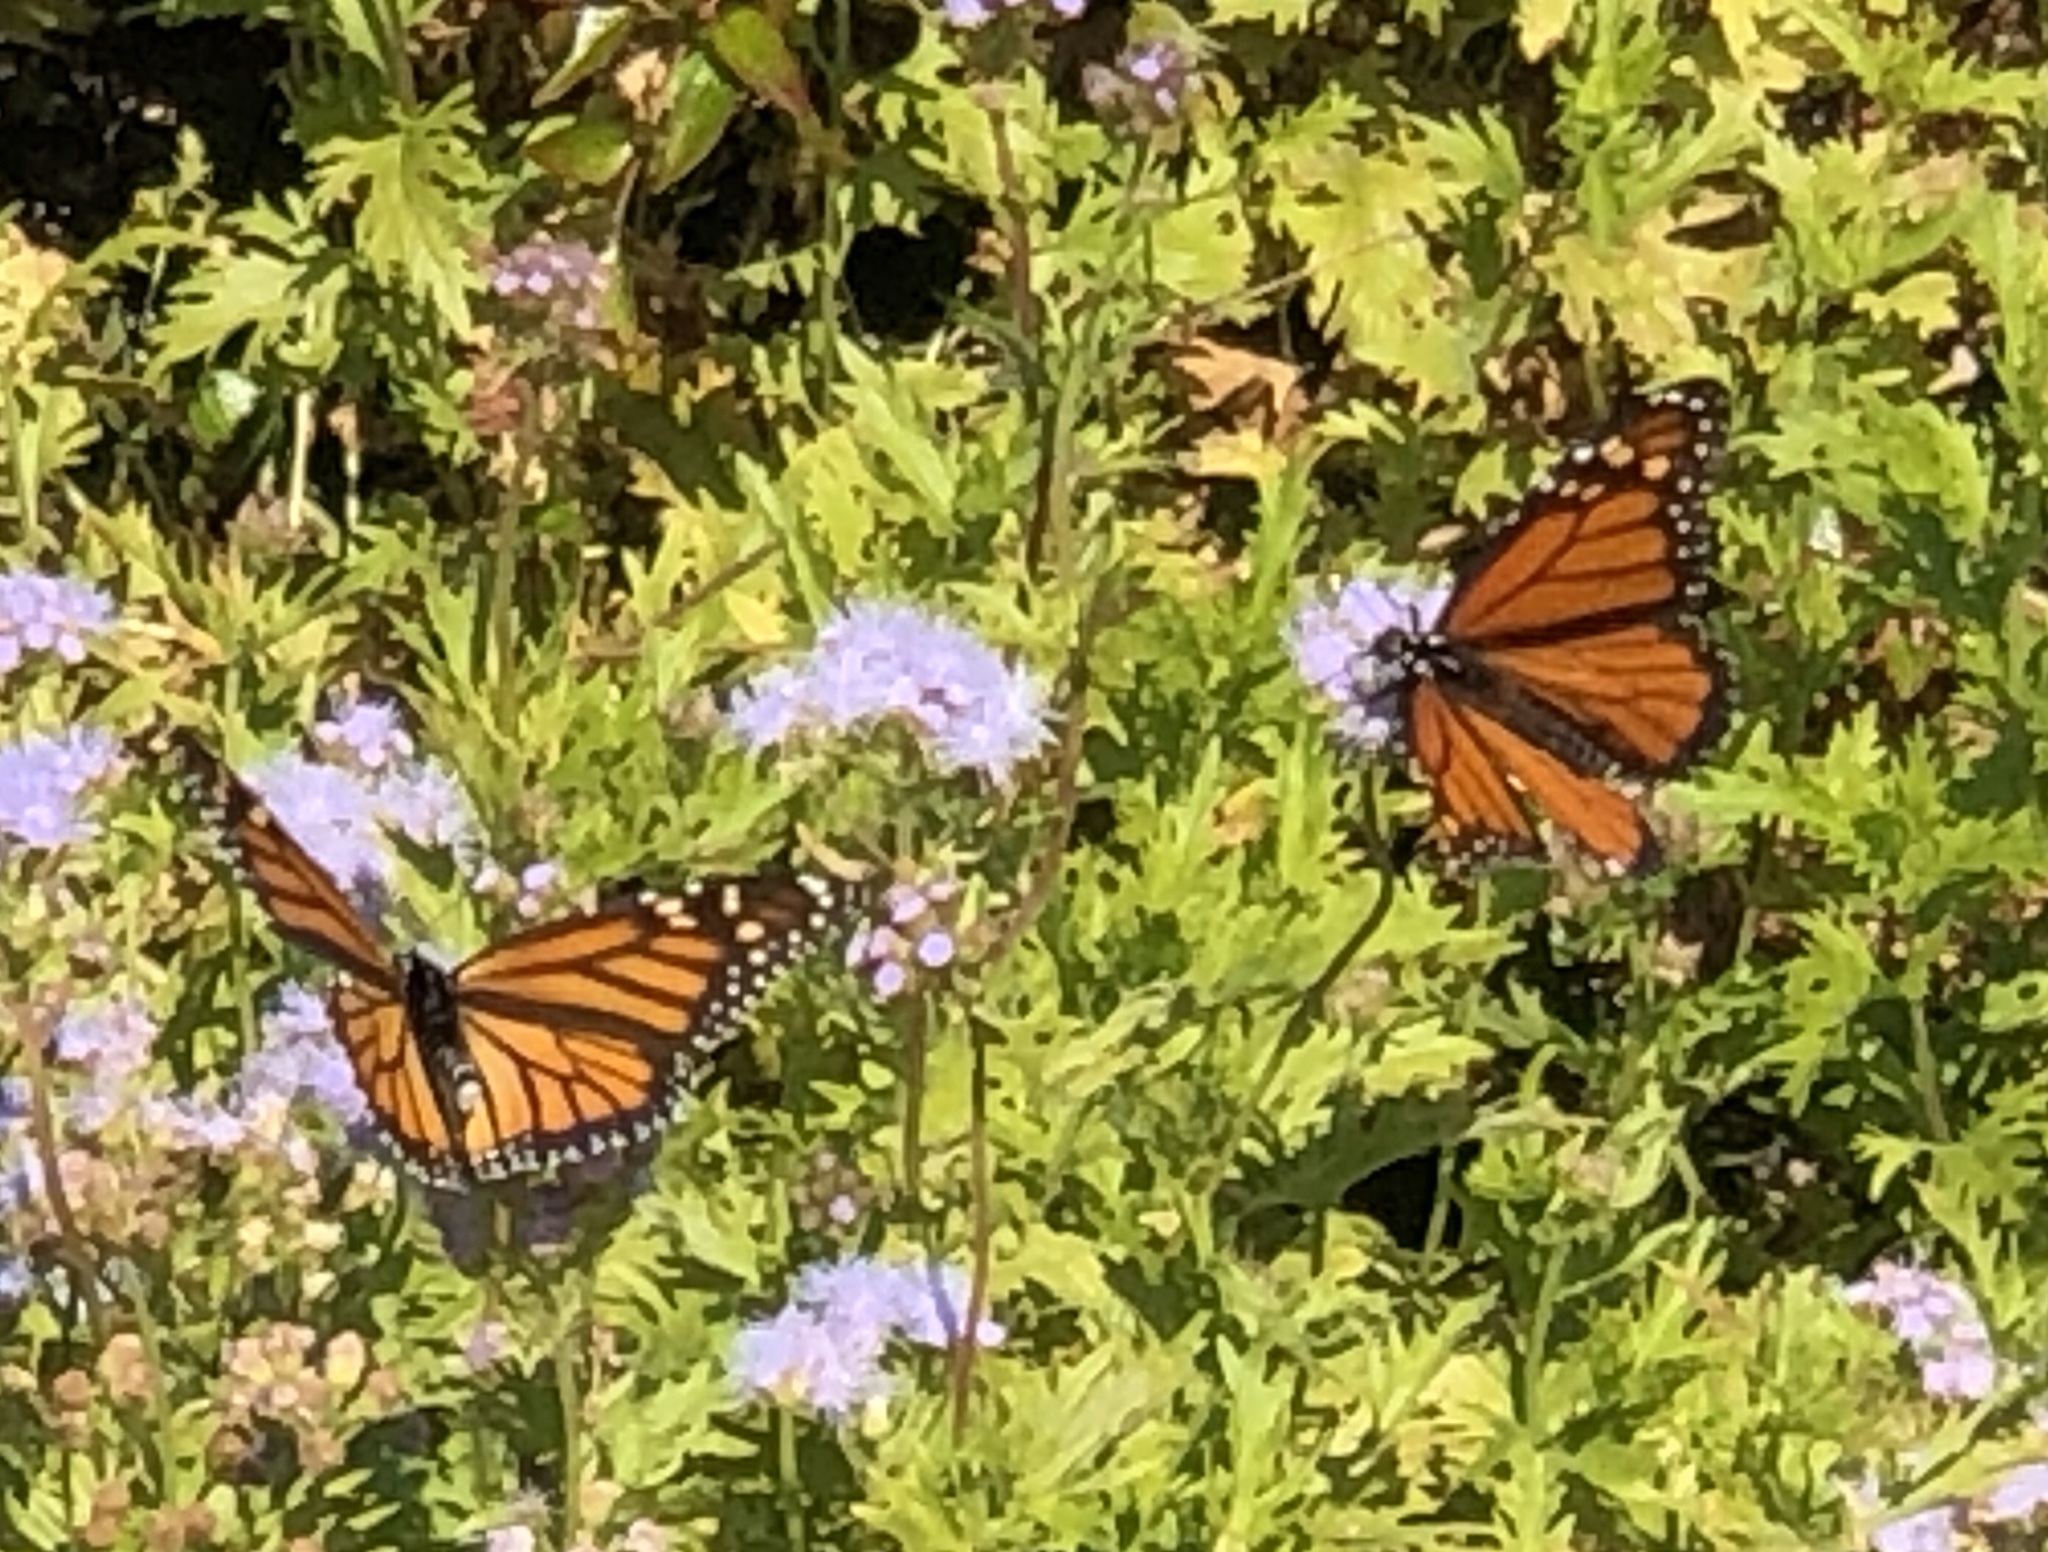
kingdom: Animalia
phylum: Arthropoda
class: Insecta
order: Lepidoptera
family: Nymphalidae
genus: Danaus
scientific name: Danaus plexippus
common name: Monarch
